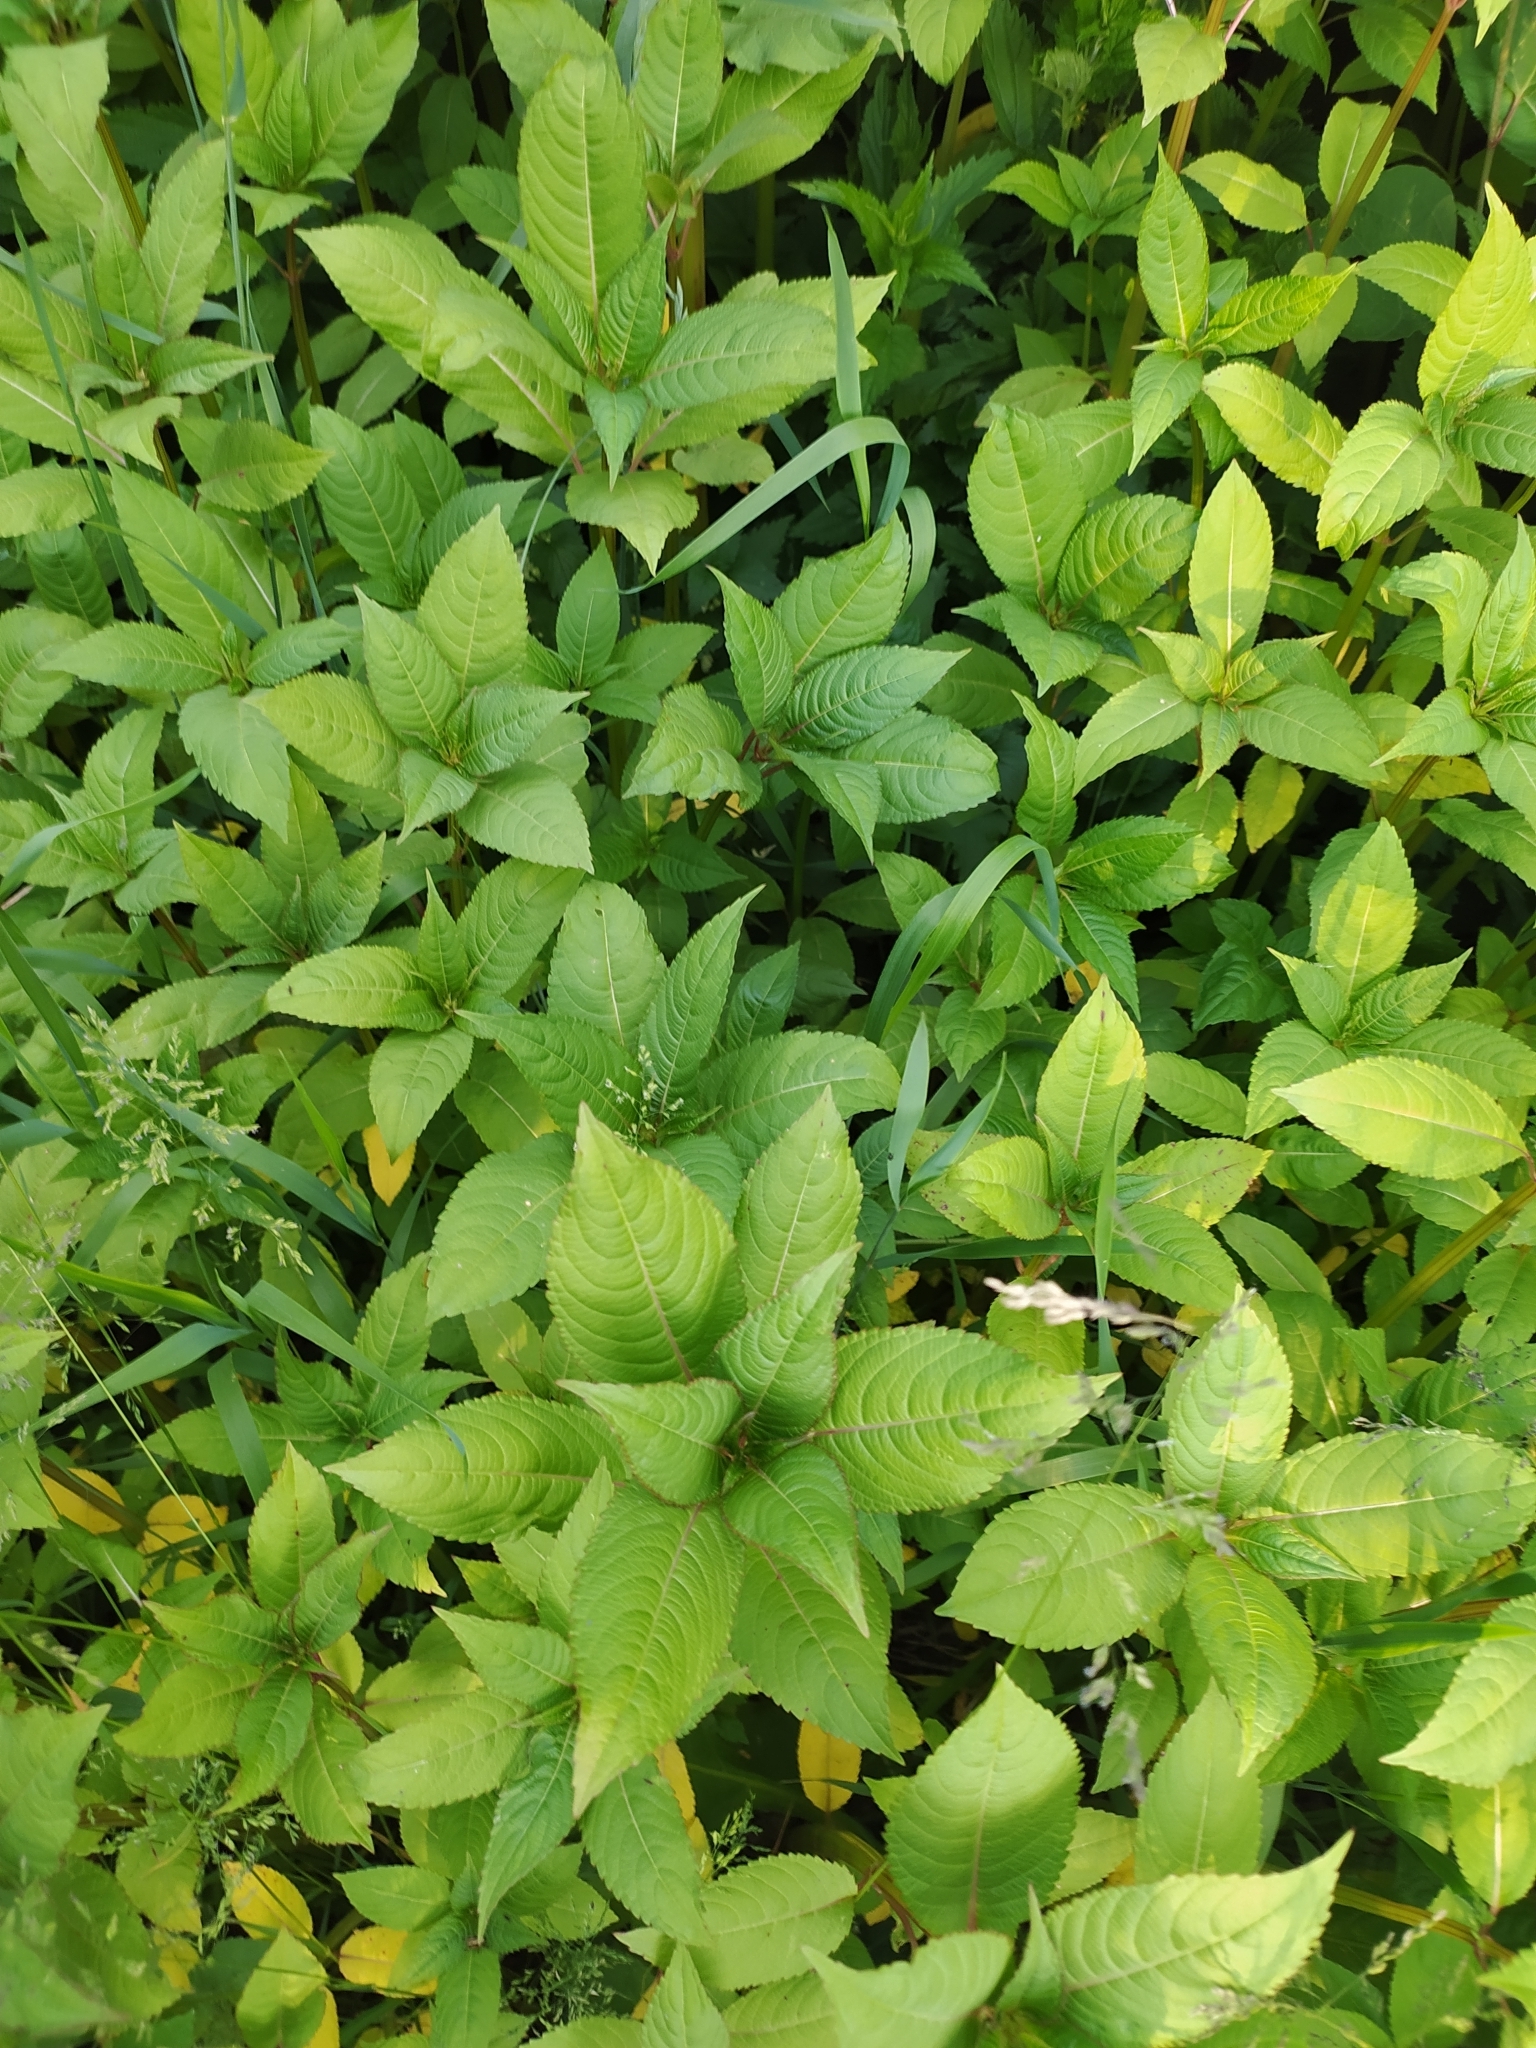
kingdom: Plantae
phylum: Tracheophyta
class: Magnoliopsida
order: Ericales
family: Balsaminaceae
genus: Impatiens
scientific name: Impatiens glandulifera
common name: Himalayan balsam
